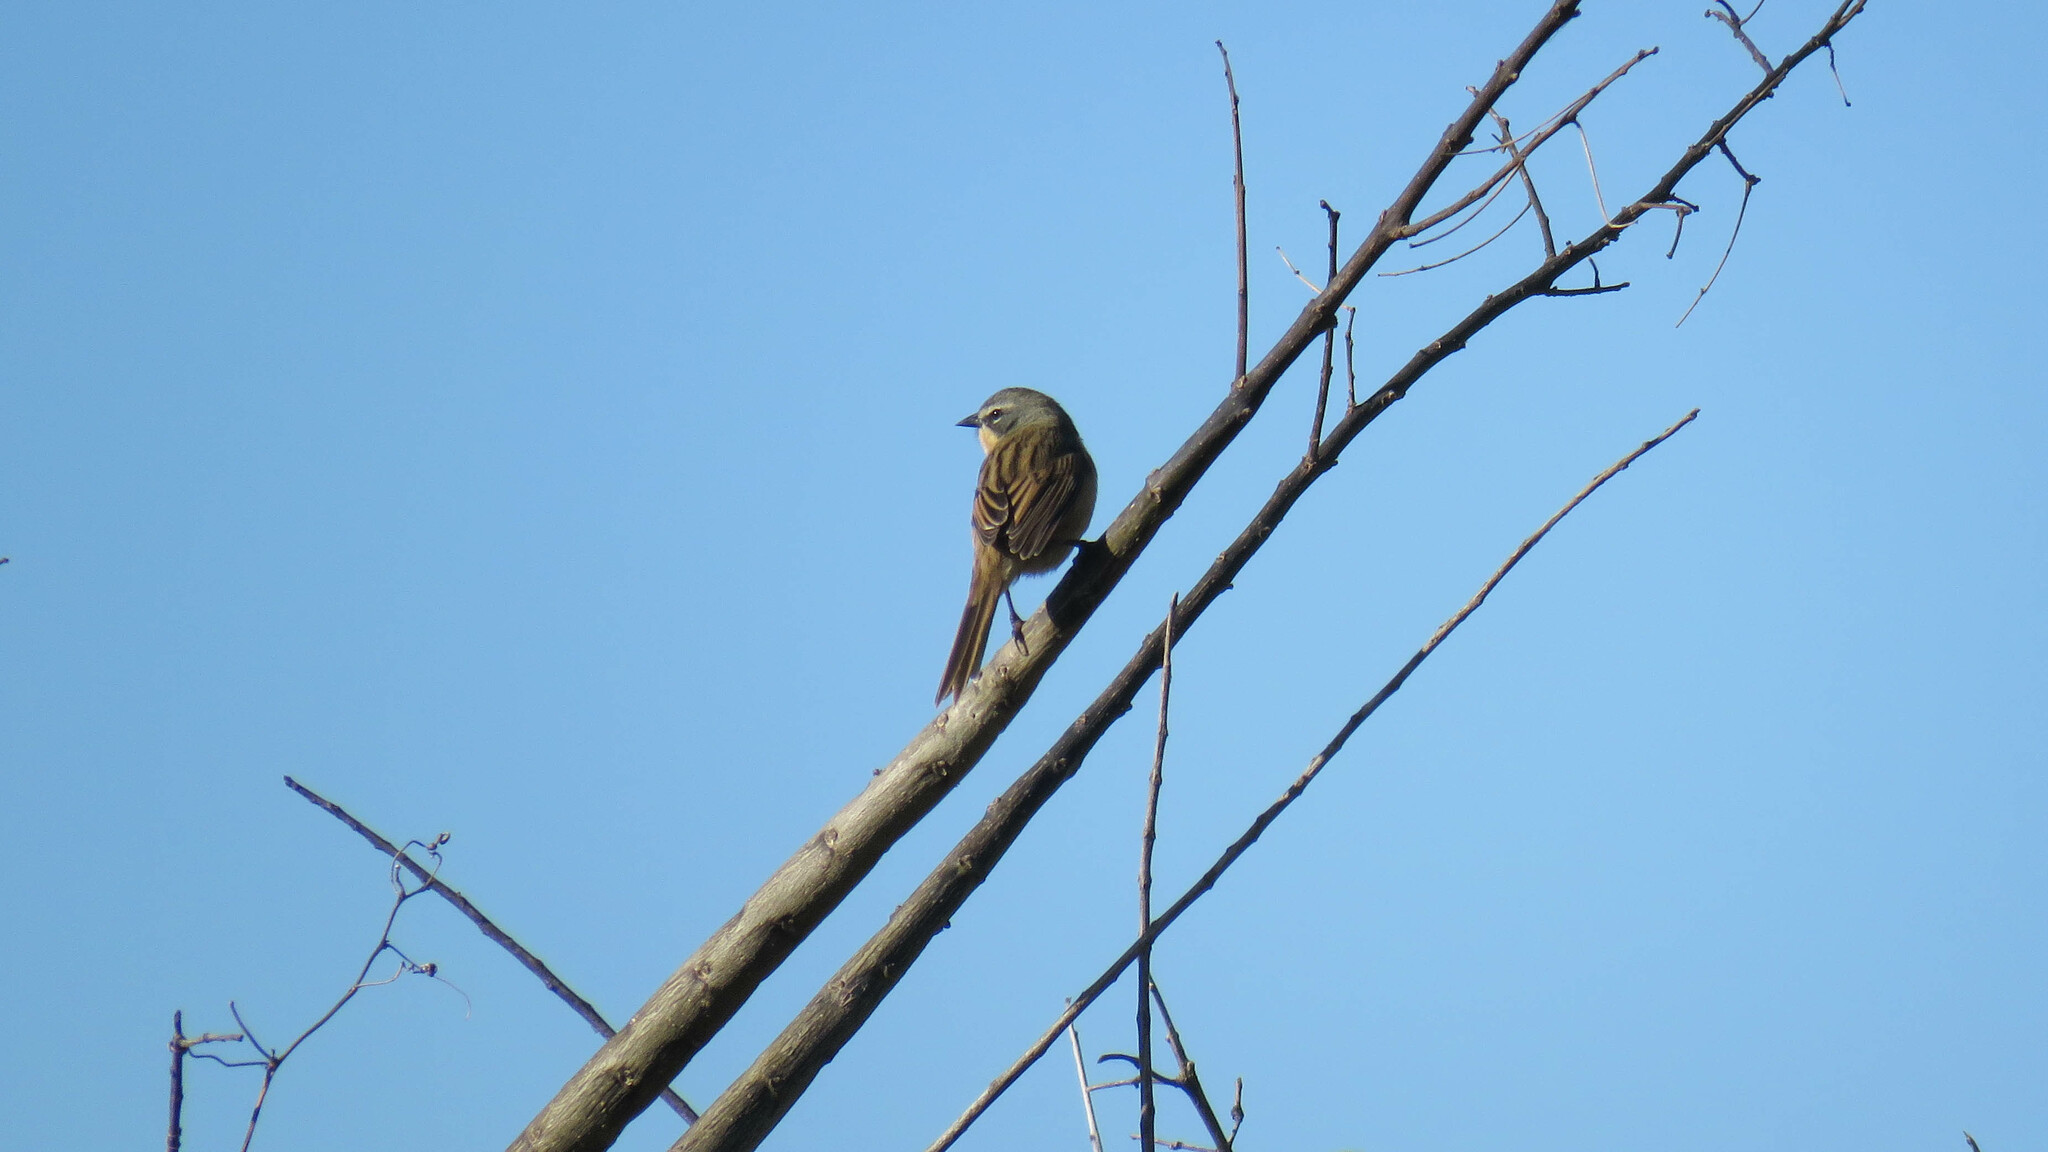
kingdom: Animalia
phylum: Chordata
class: Aves
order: Passeriformes
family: Thraupidae
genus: Donacospiza
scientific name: Donacospiza albifrons
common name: Long-tailed reed finch
